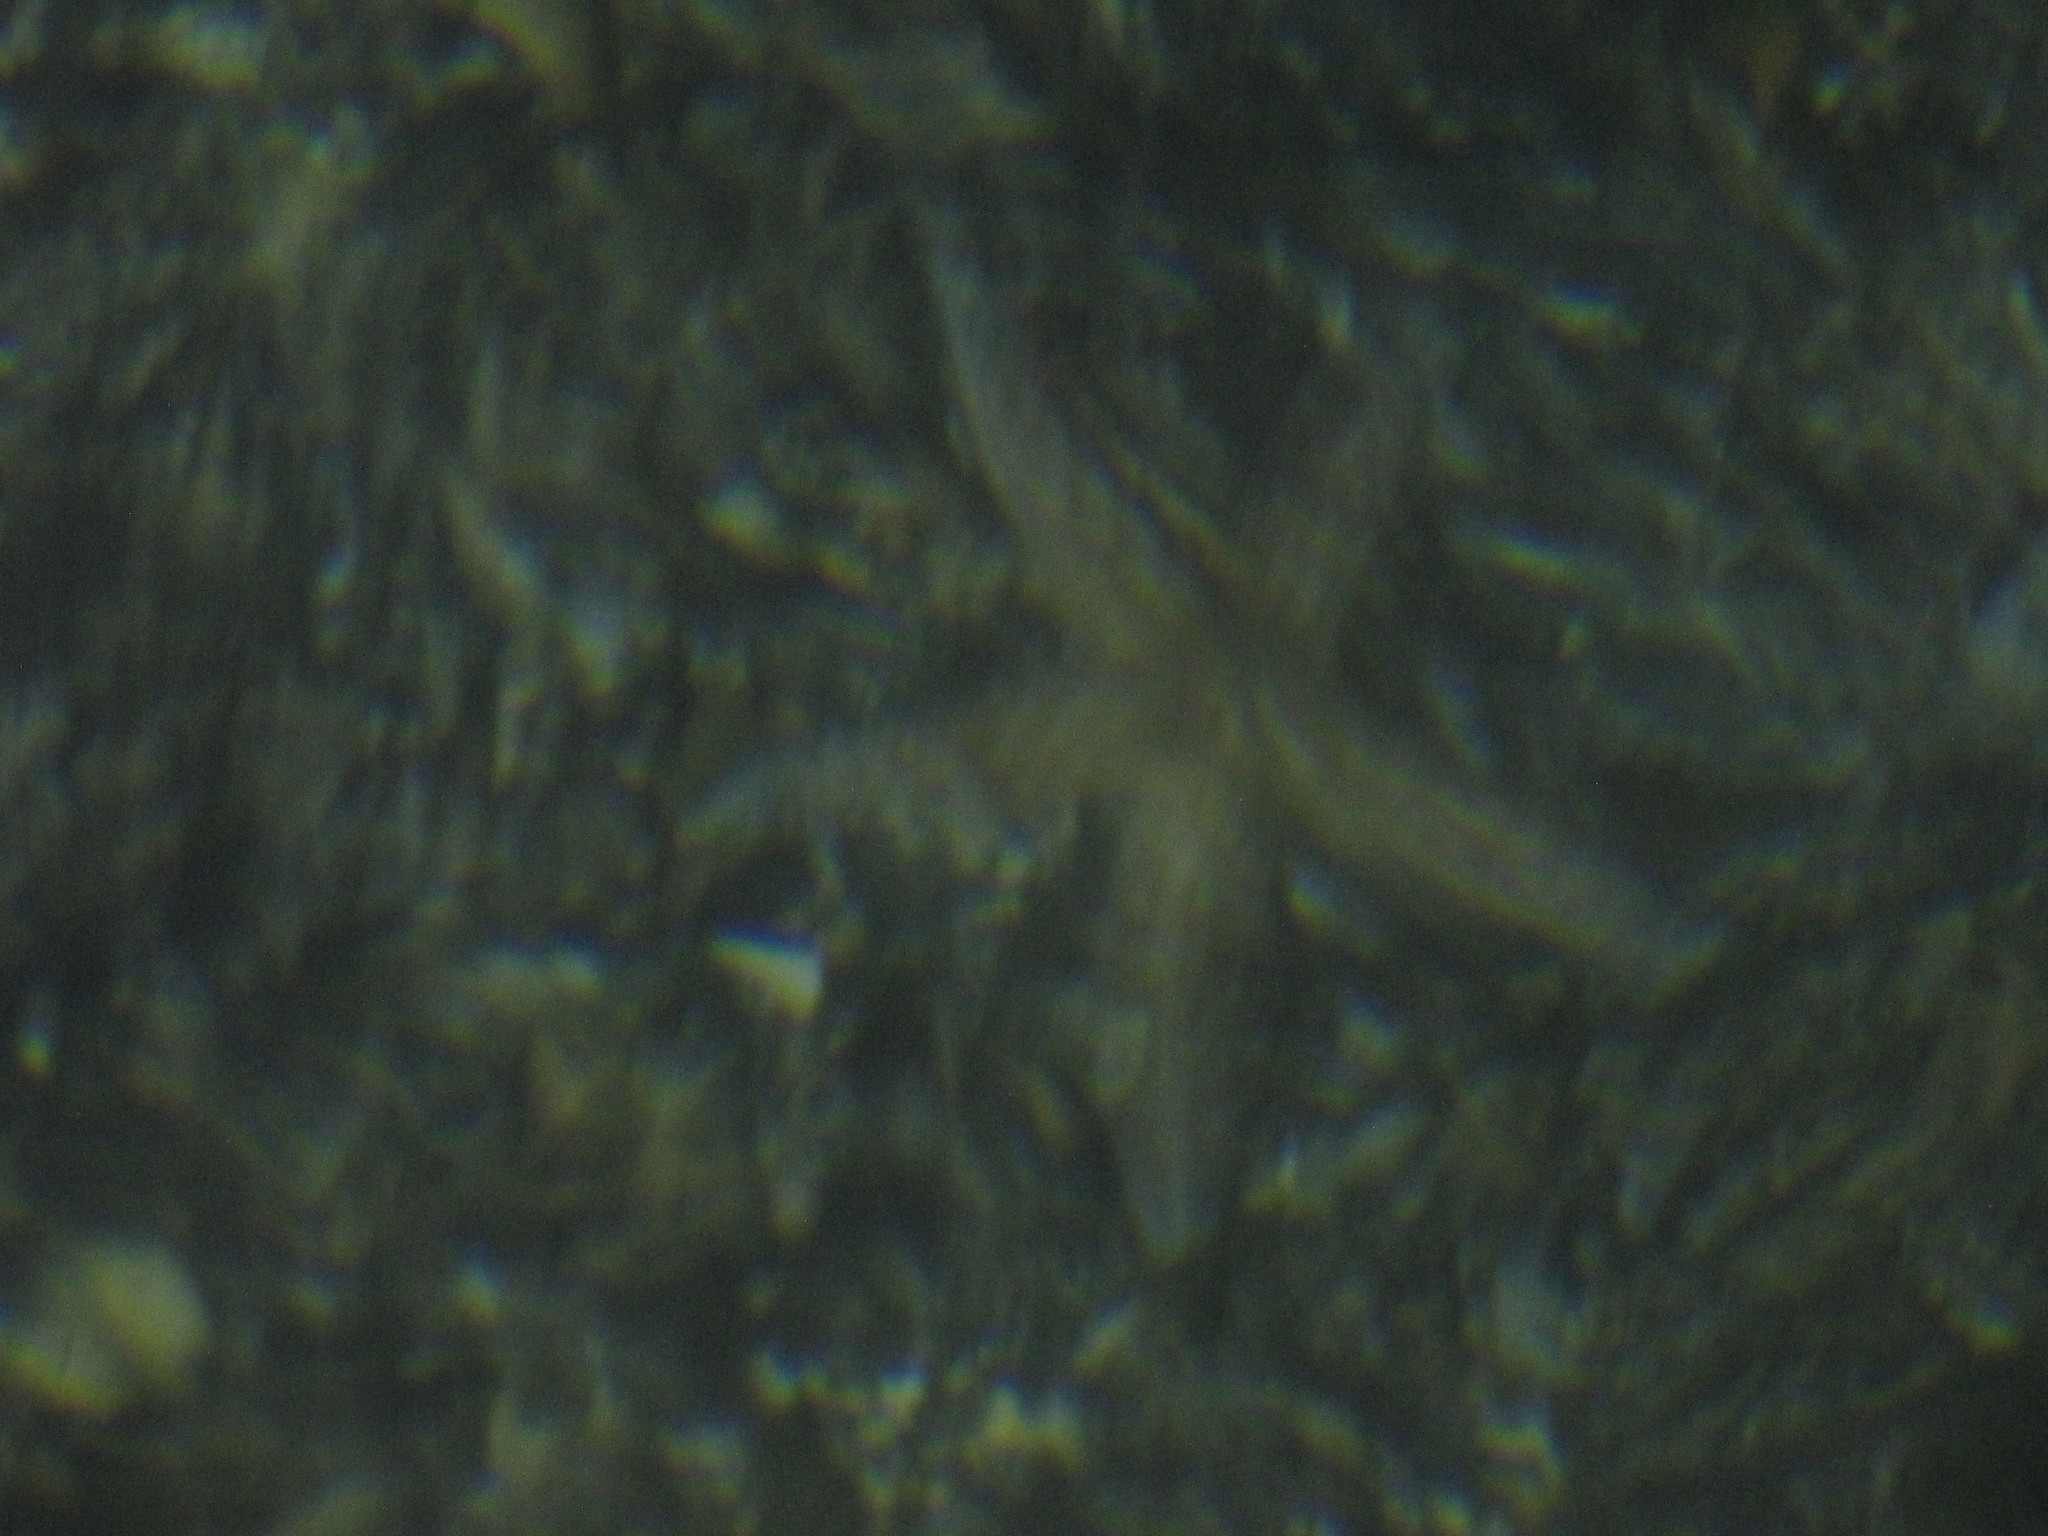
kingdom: Animalia
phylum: Echinodermata
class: Asteroidea
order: Forcipulatida
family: Asteriidae
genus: Evasterias
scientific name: Evasterias troschelii
